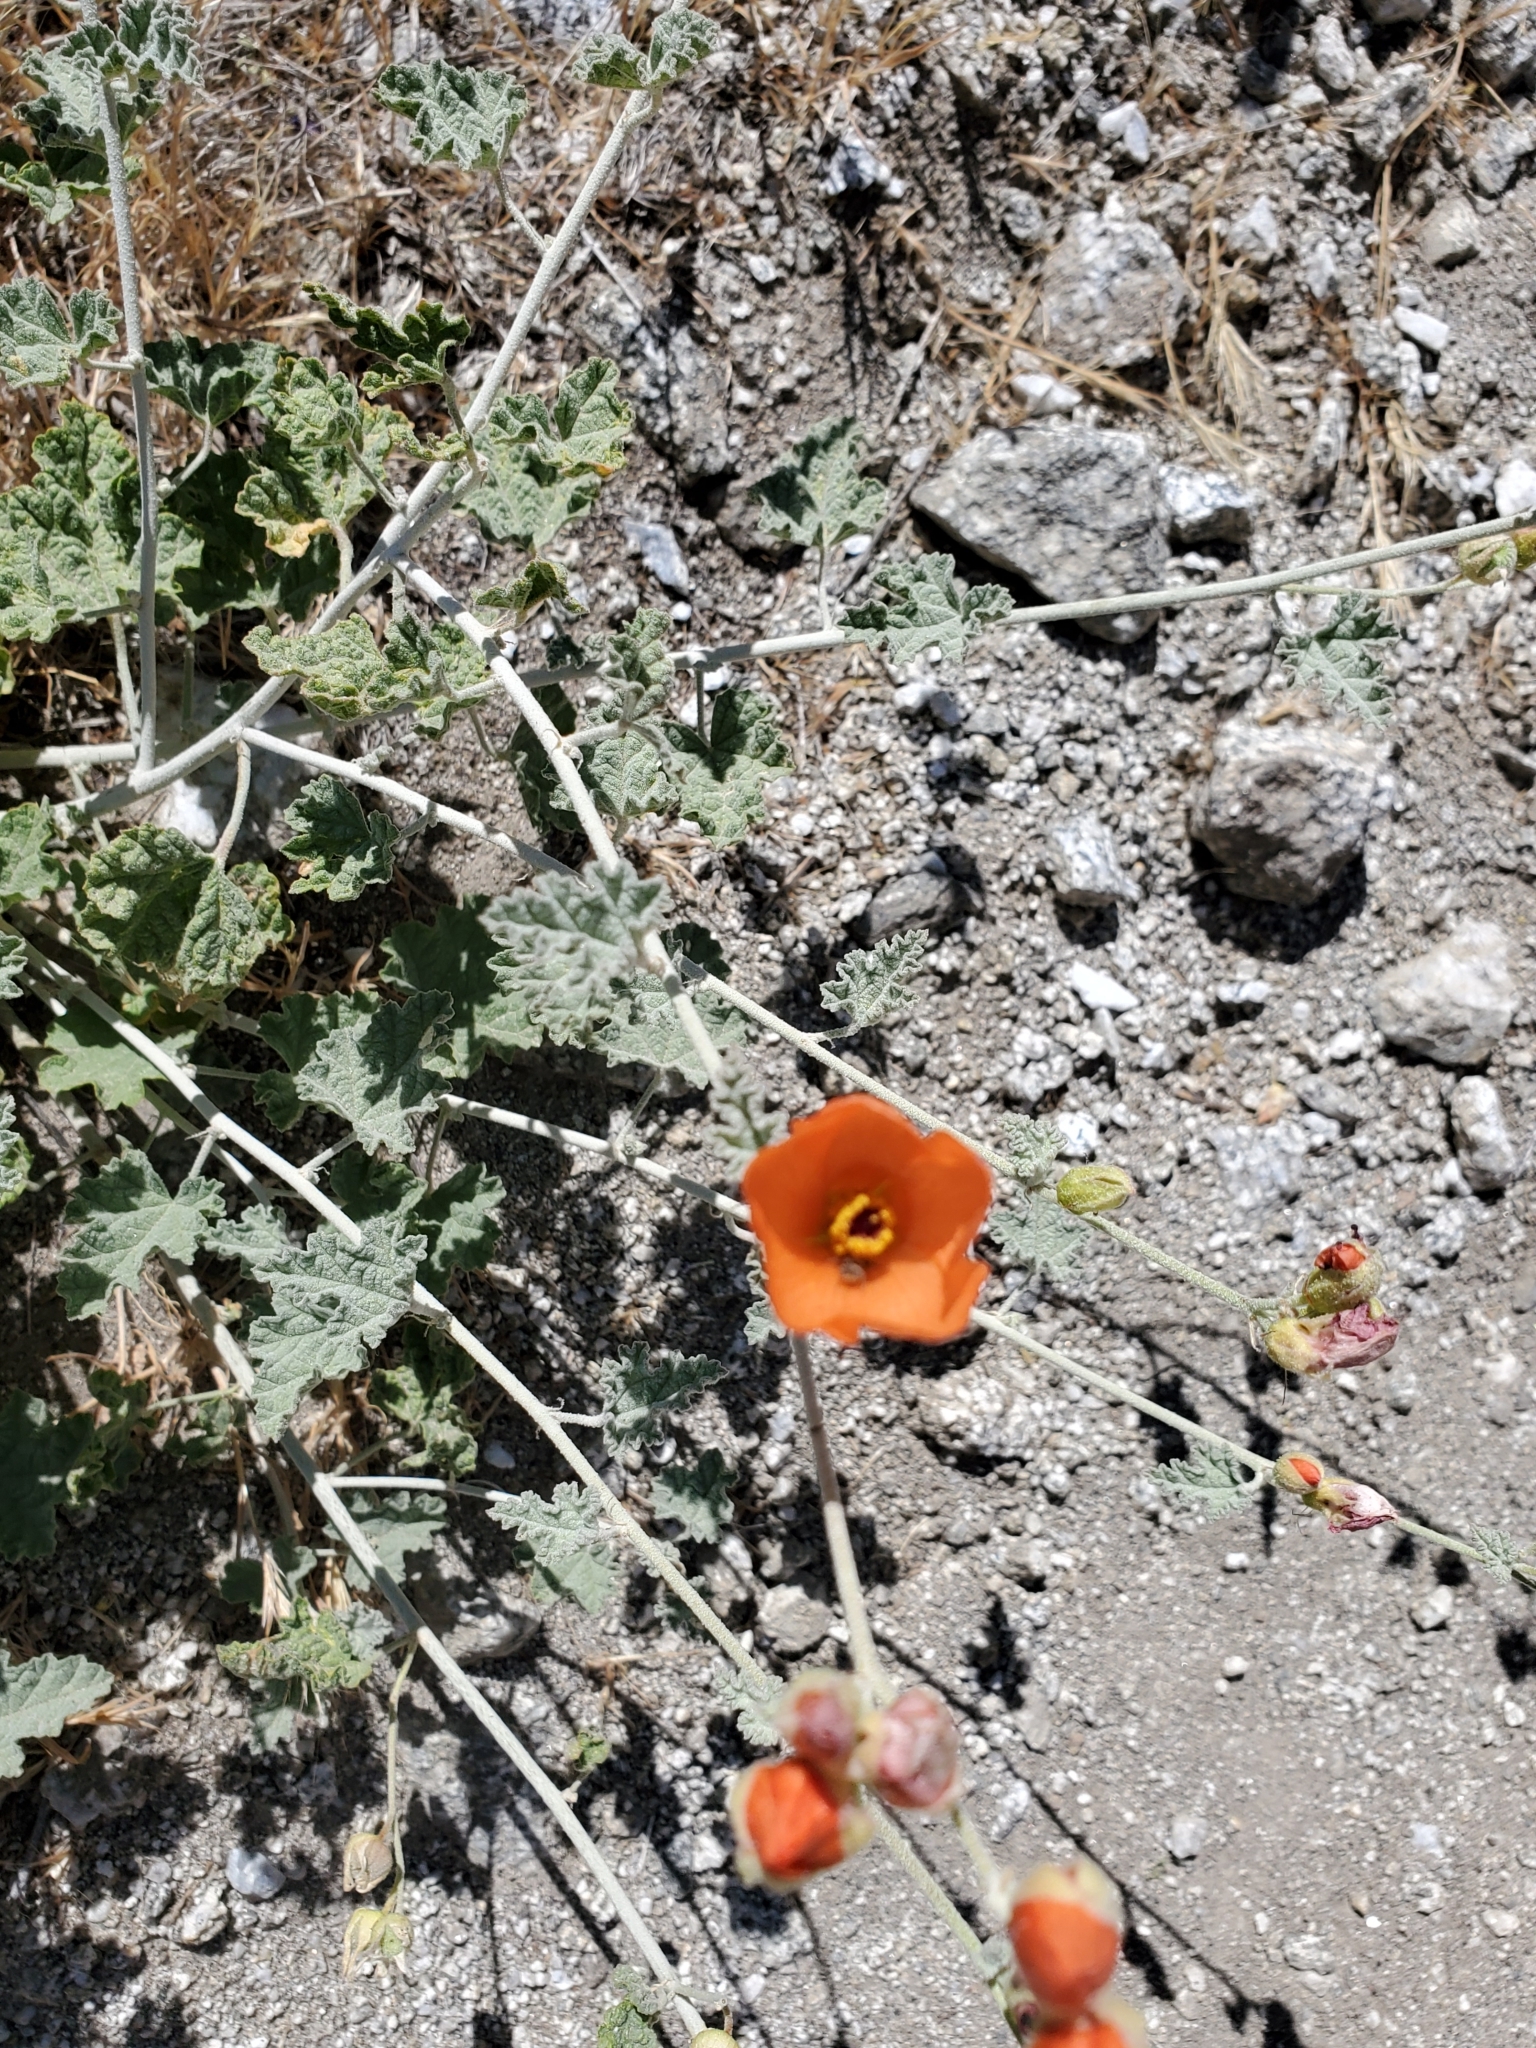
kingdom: Plantae
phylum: Tracheophyta
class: Magnoliopsida
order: Malvales
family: Malvaceae
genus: Sphaeralcea
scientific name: Sphaeralcea ambigua
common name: Apricot globe-mallow
